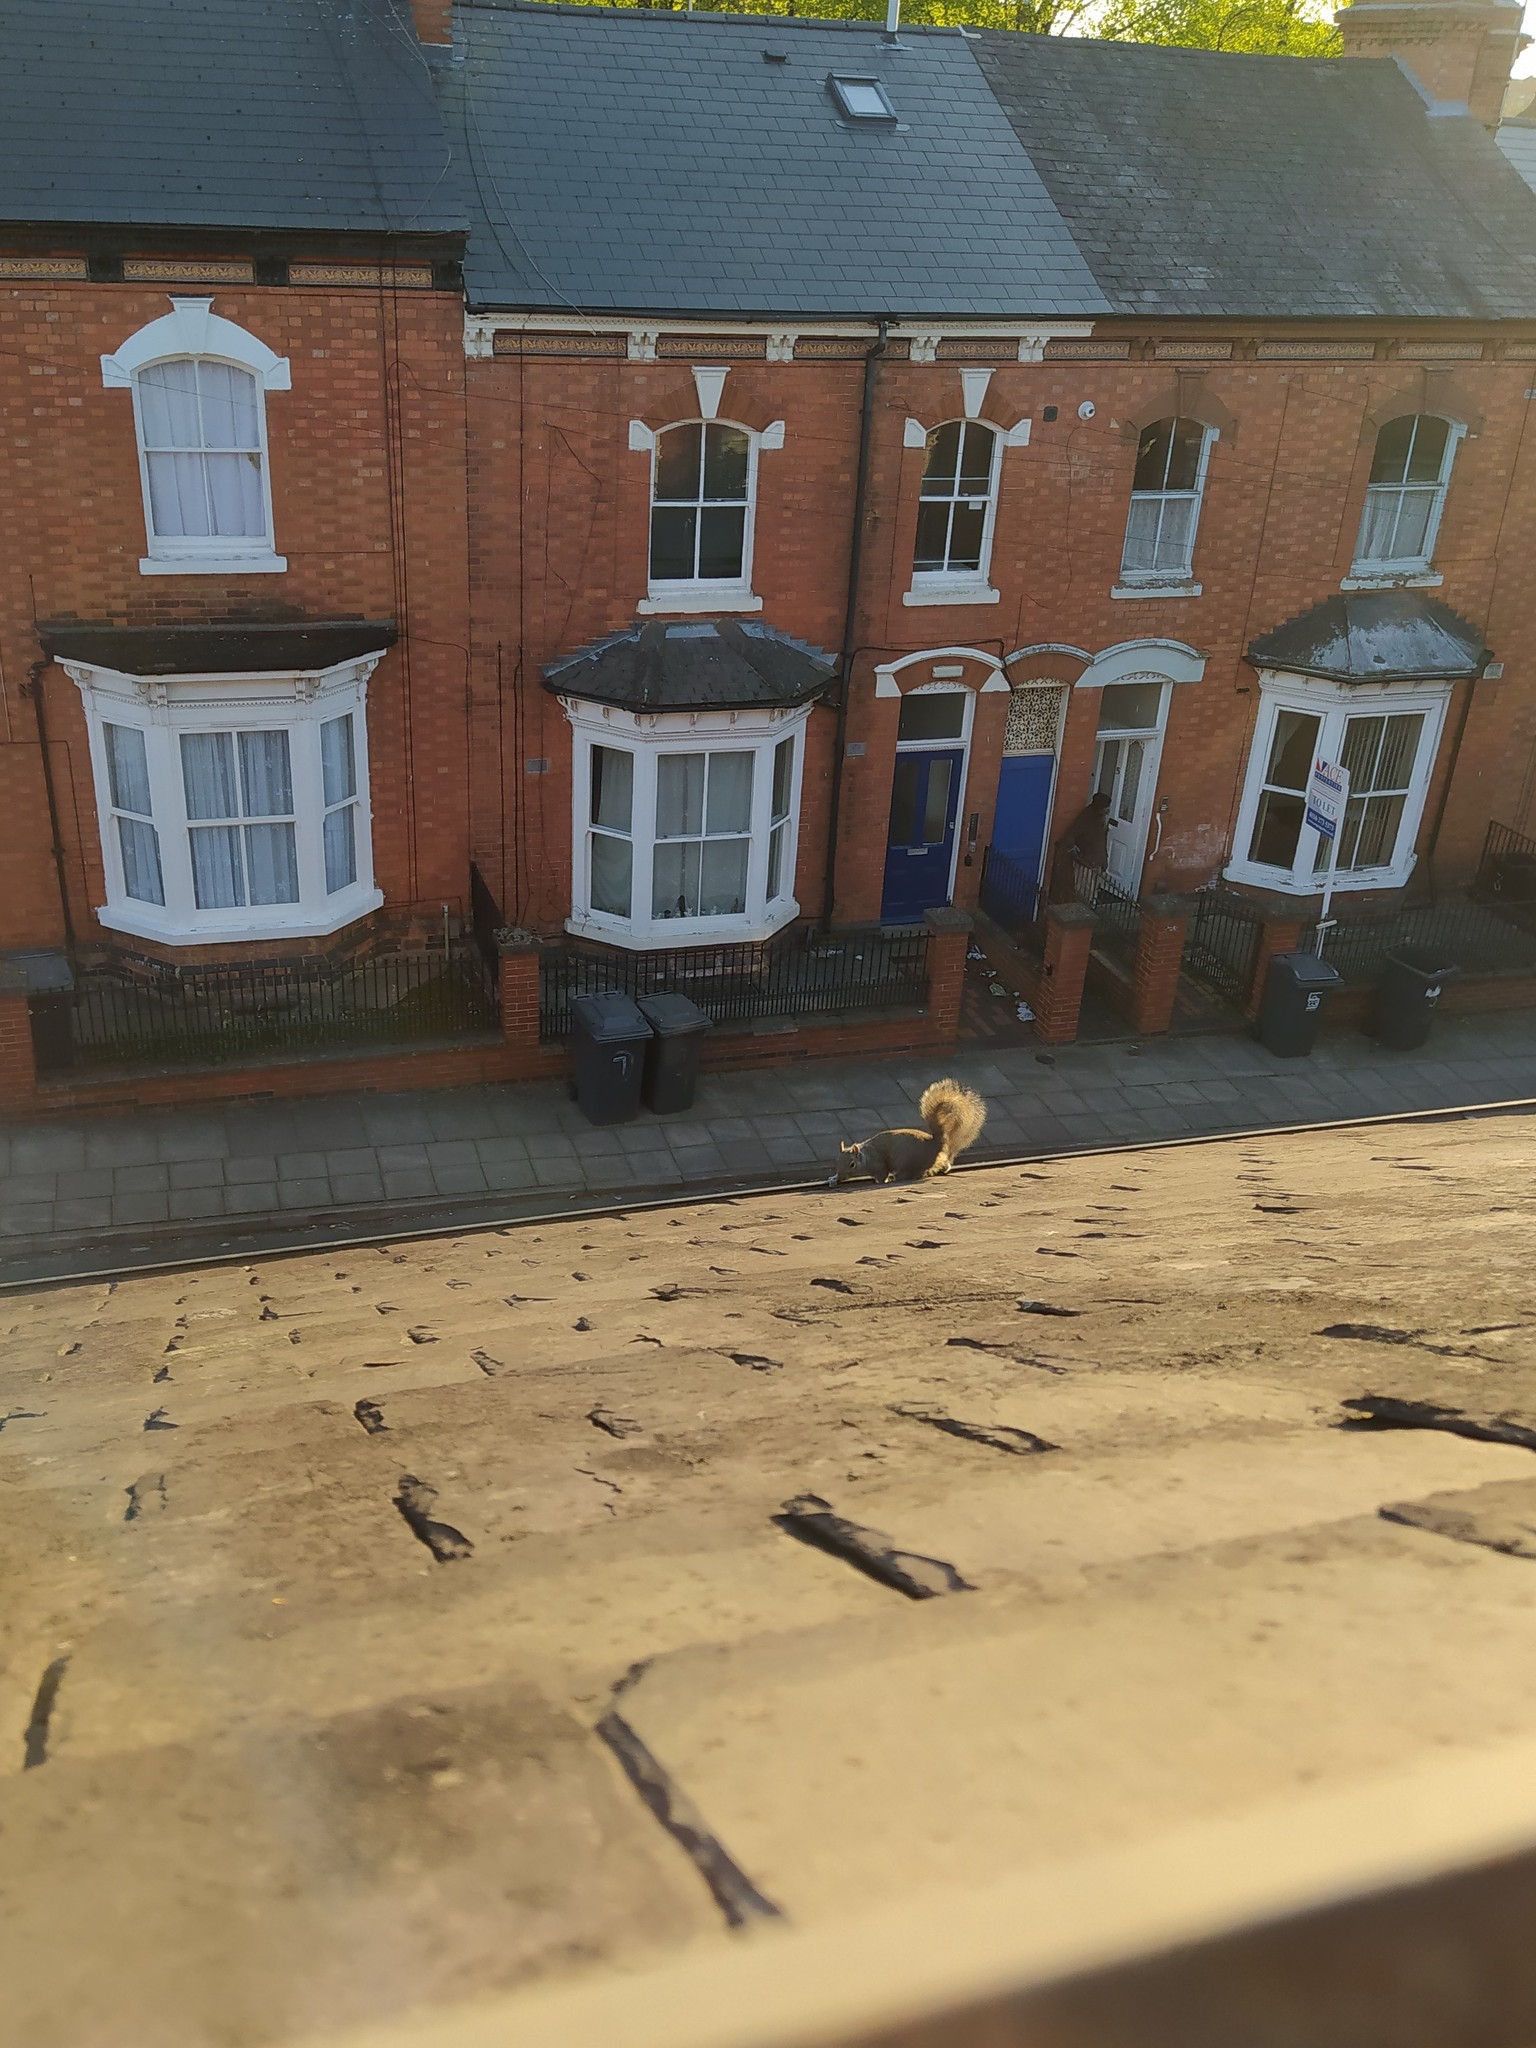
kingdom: Animalia
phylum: Chordata
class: Mammalia
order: Rodentia
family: Sciuridae
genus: Sciurus
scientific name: Sciurus carolinensis
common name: Eastern gray squirrel
